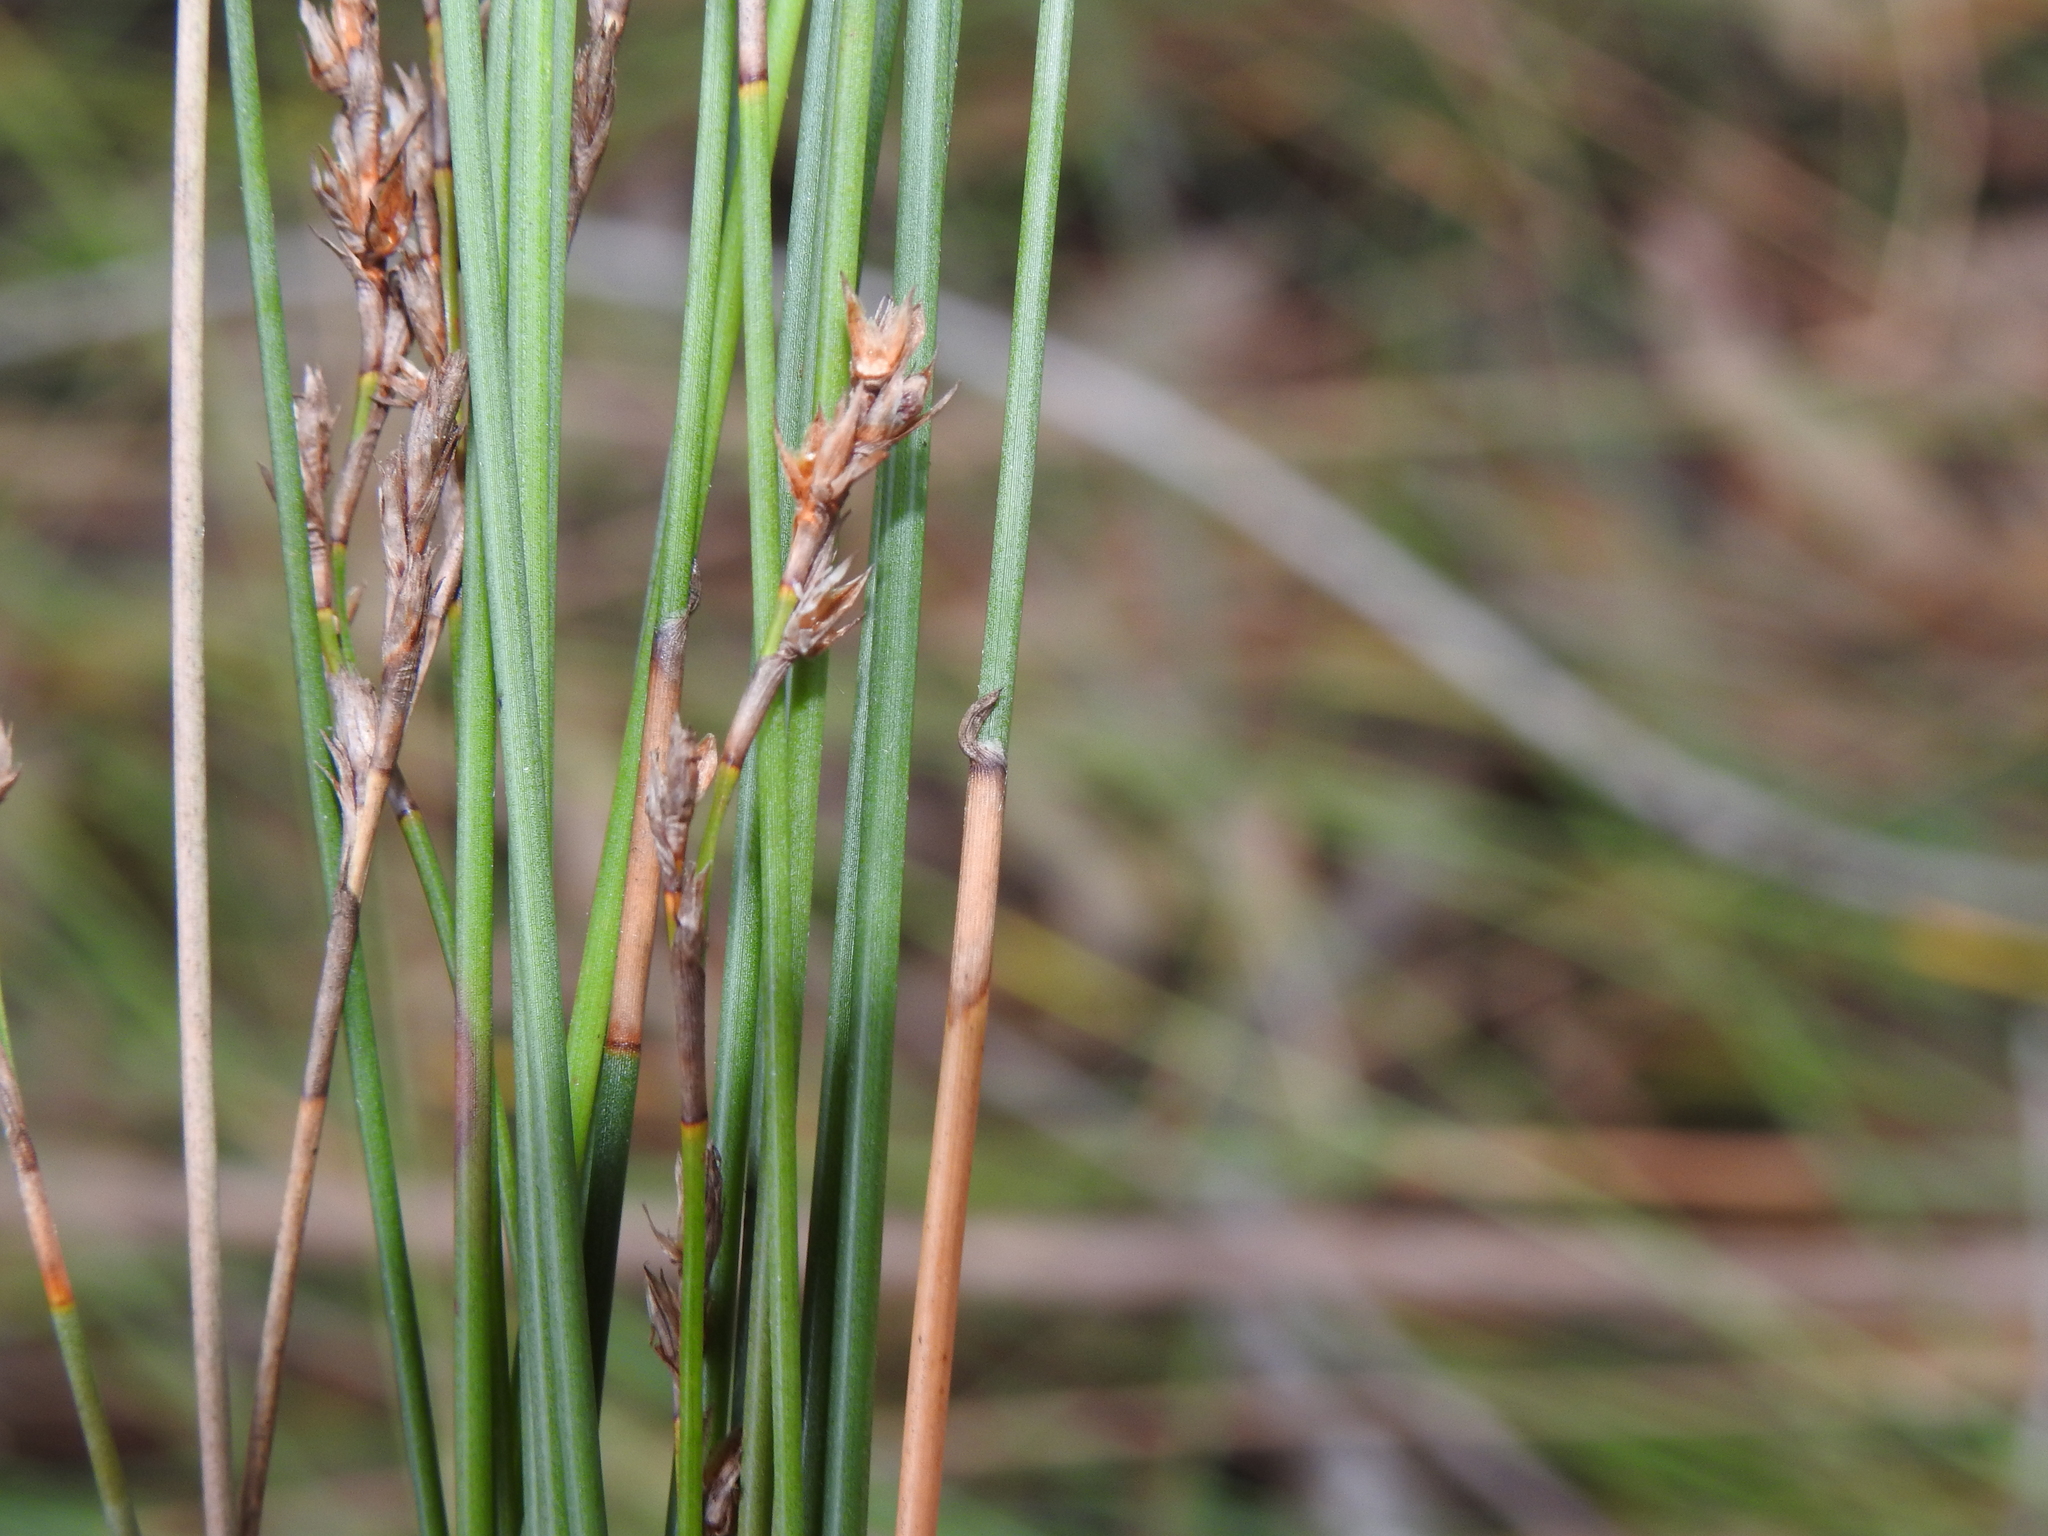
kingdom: Plantae
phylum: Tracheophyta
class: Liliopsida
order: Poales
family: Cyperaceae
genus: Machaerina
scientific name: Machaerina juncea
